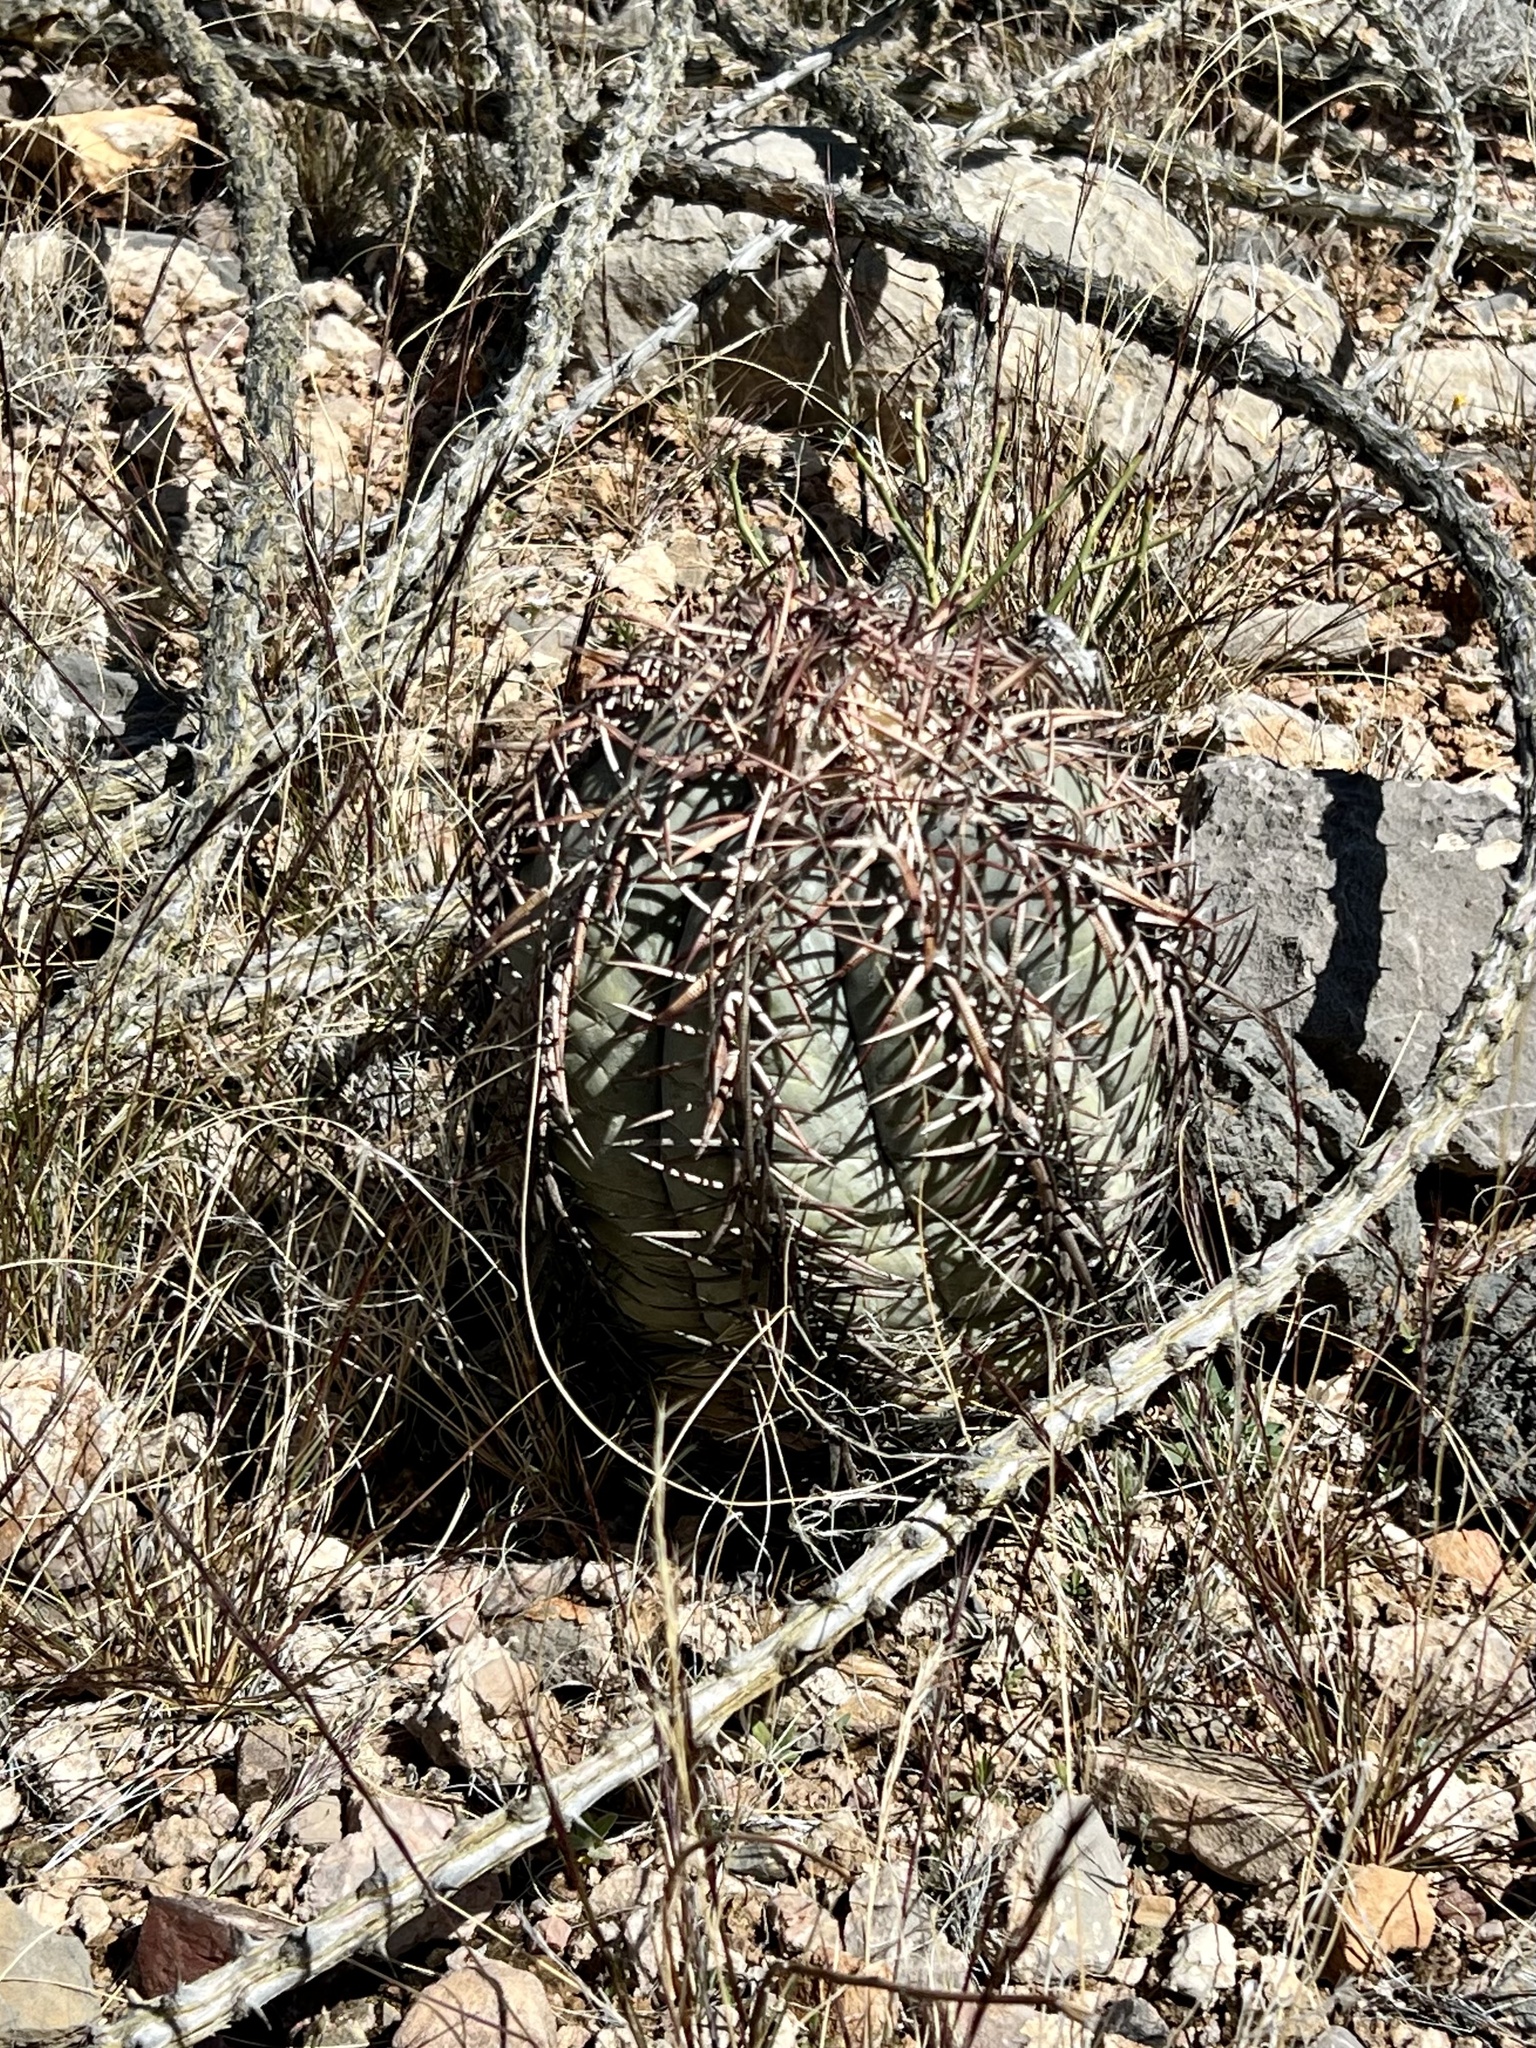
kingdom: Plantae
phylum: Tracheophyta
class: Magnoliopsida
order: Caryophyllales
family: Cactaceae
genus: Echinocactus
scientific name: Echinocactus horizonthalonius
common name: Devilshead
